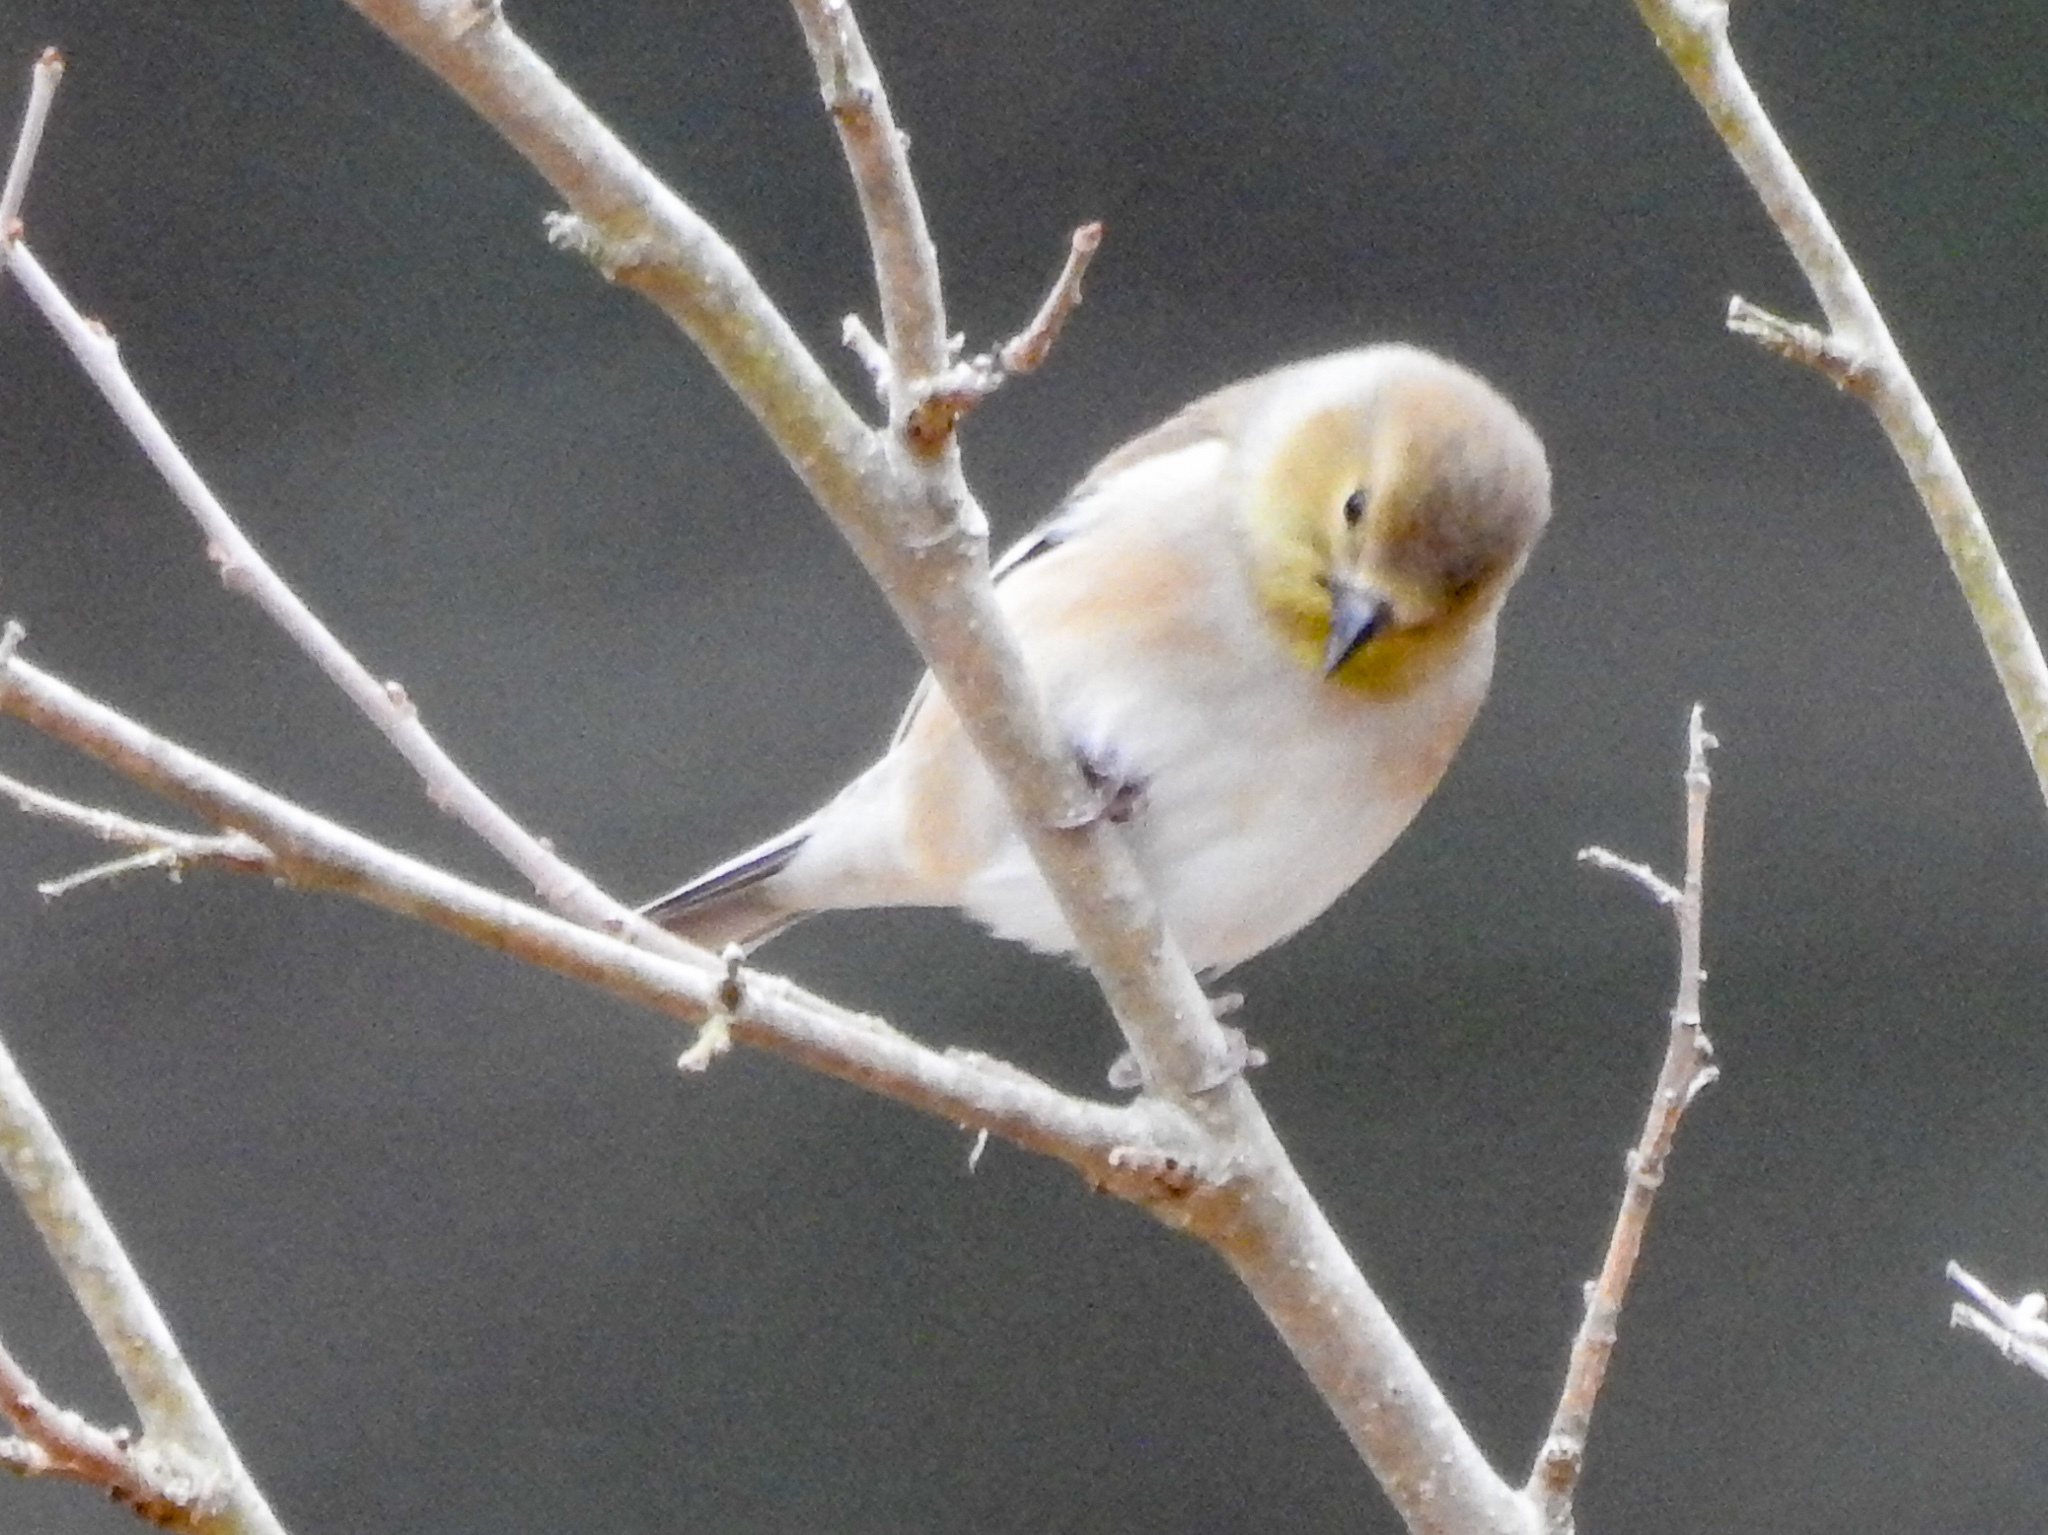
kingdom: Animalia
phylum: Chordata
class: Aves
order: Passeriformes
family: Fringillidae
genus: Spinus
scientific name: Spinus tristis
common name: American goldfinch
